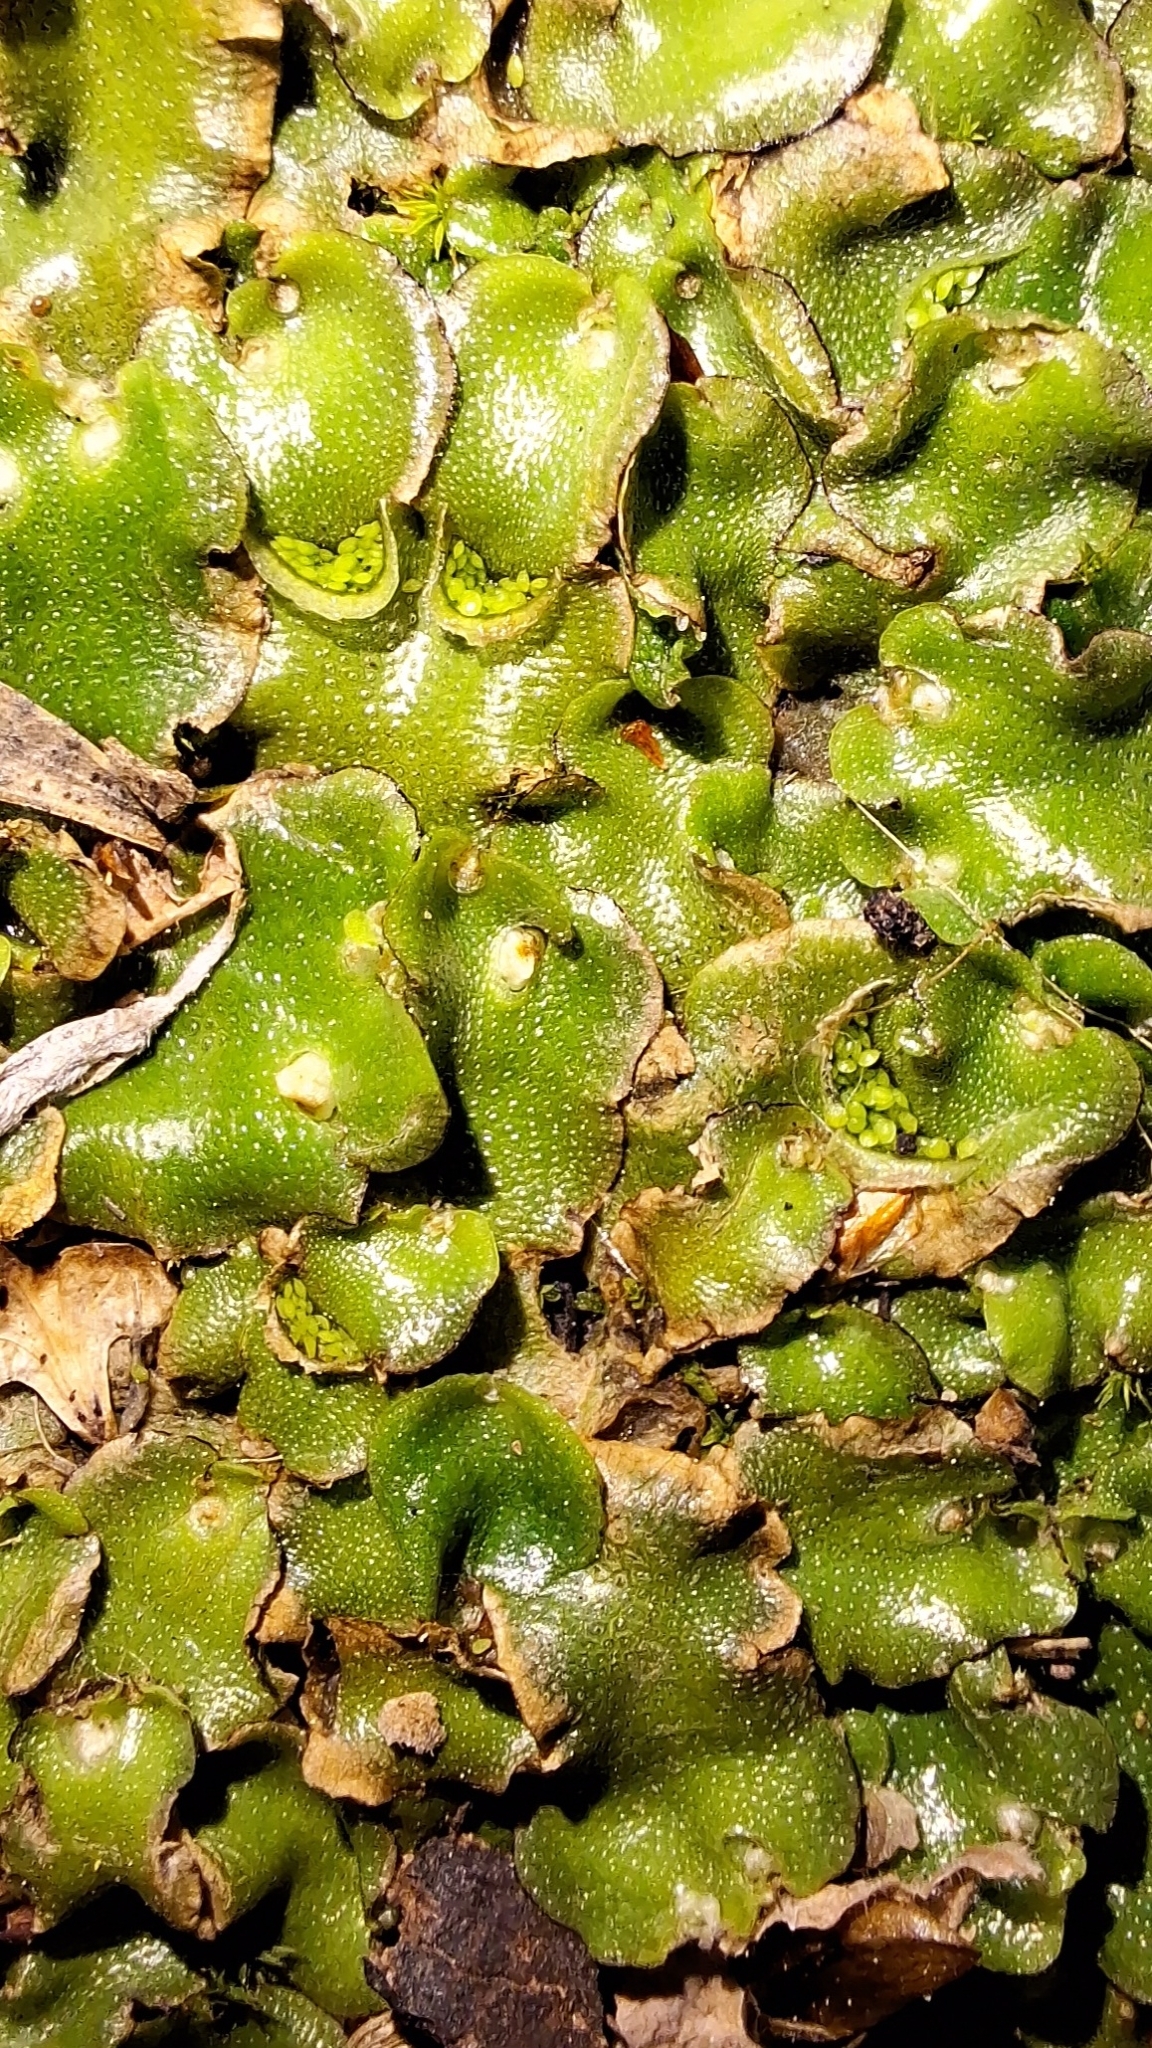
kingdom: Plantae
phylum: Marchantiophyta
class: Marchantiopsida
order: Lunulariales
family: Lunulariaceae
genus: Lunularia
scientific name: Lunularia cruciata
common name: Crescent-cup liverwort
